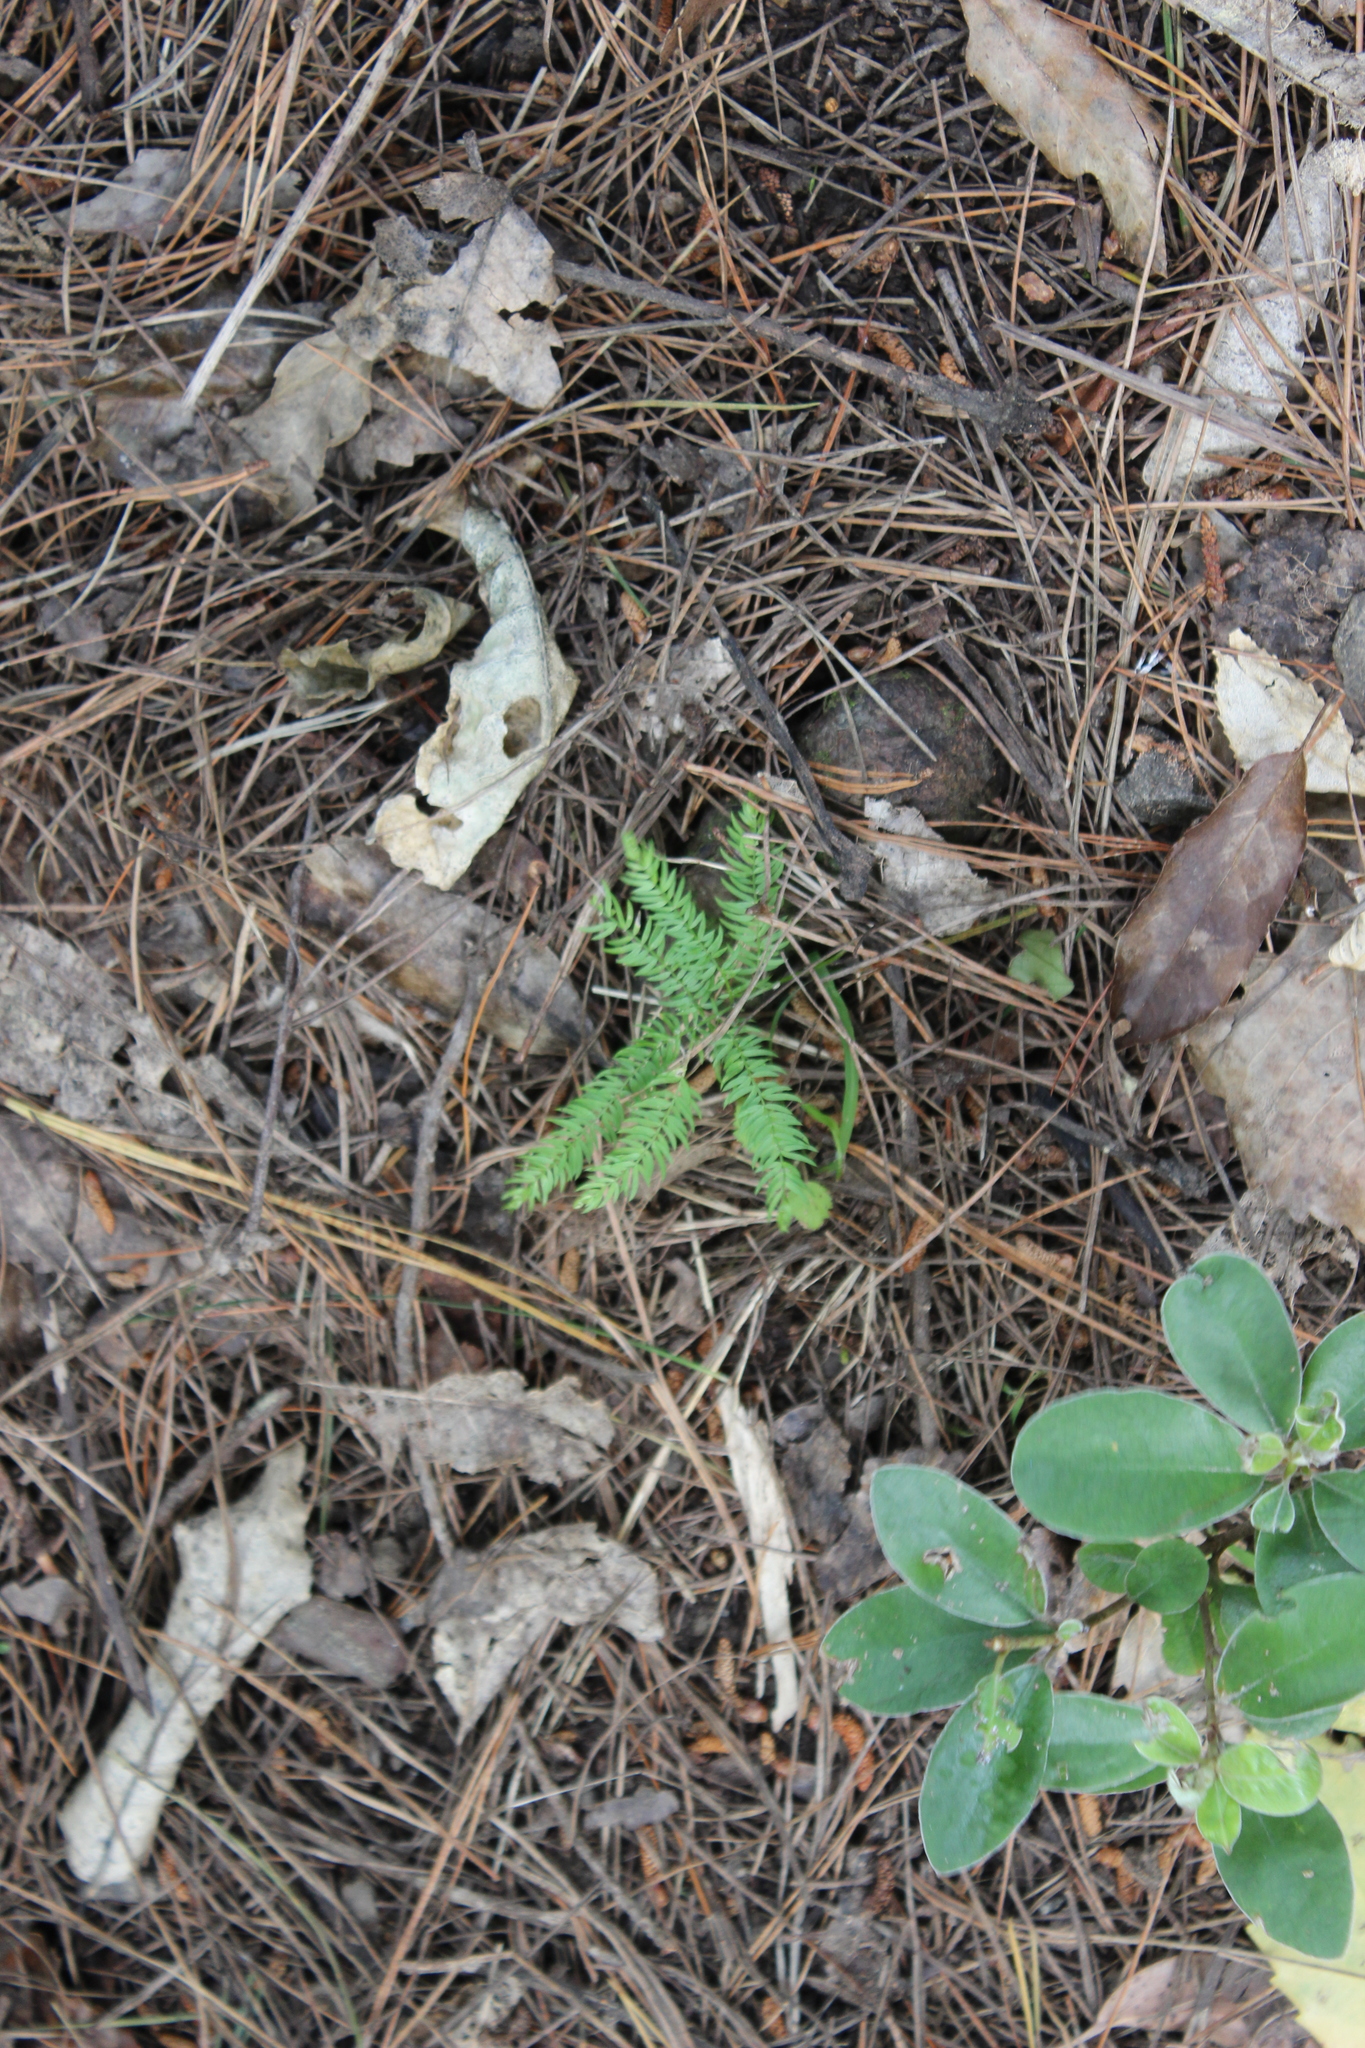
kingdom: Plantae
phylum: Tracheophyta
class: Liliopsida
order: Asparagales
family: Asparagaceae
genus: Asparagus
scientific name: Asparagus scandens
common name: Asparagus-fern
